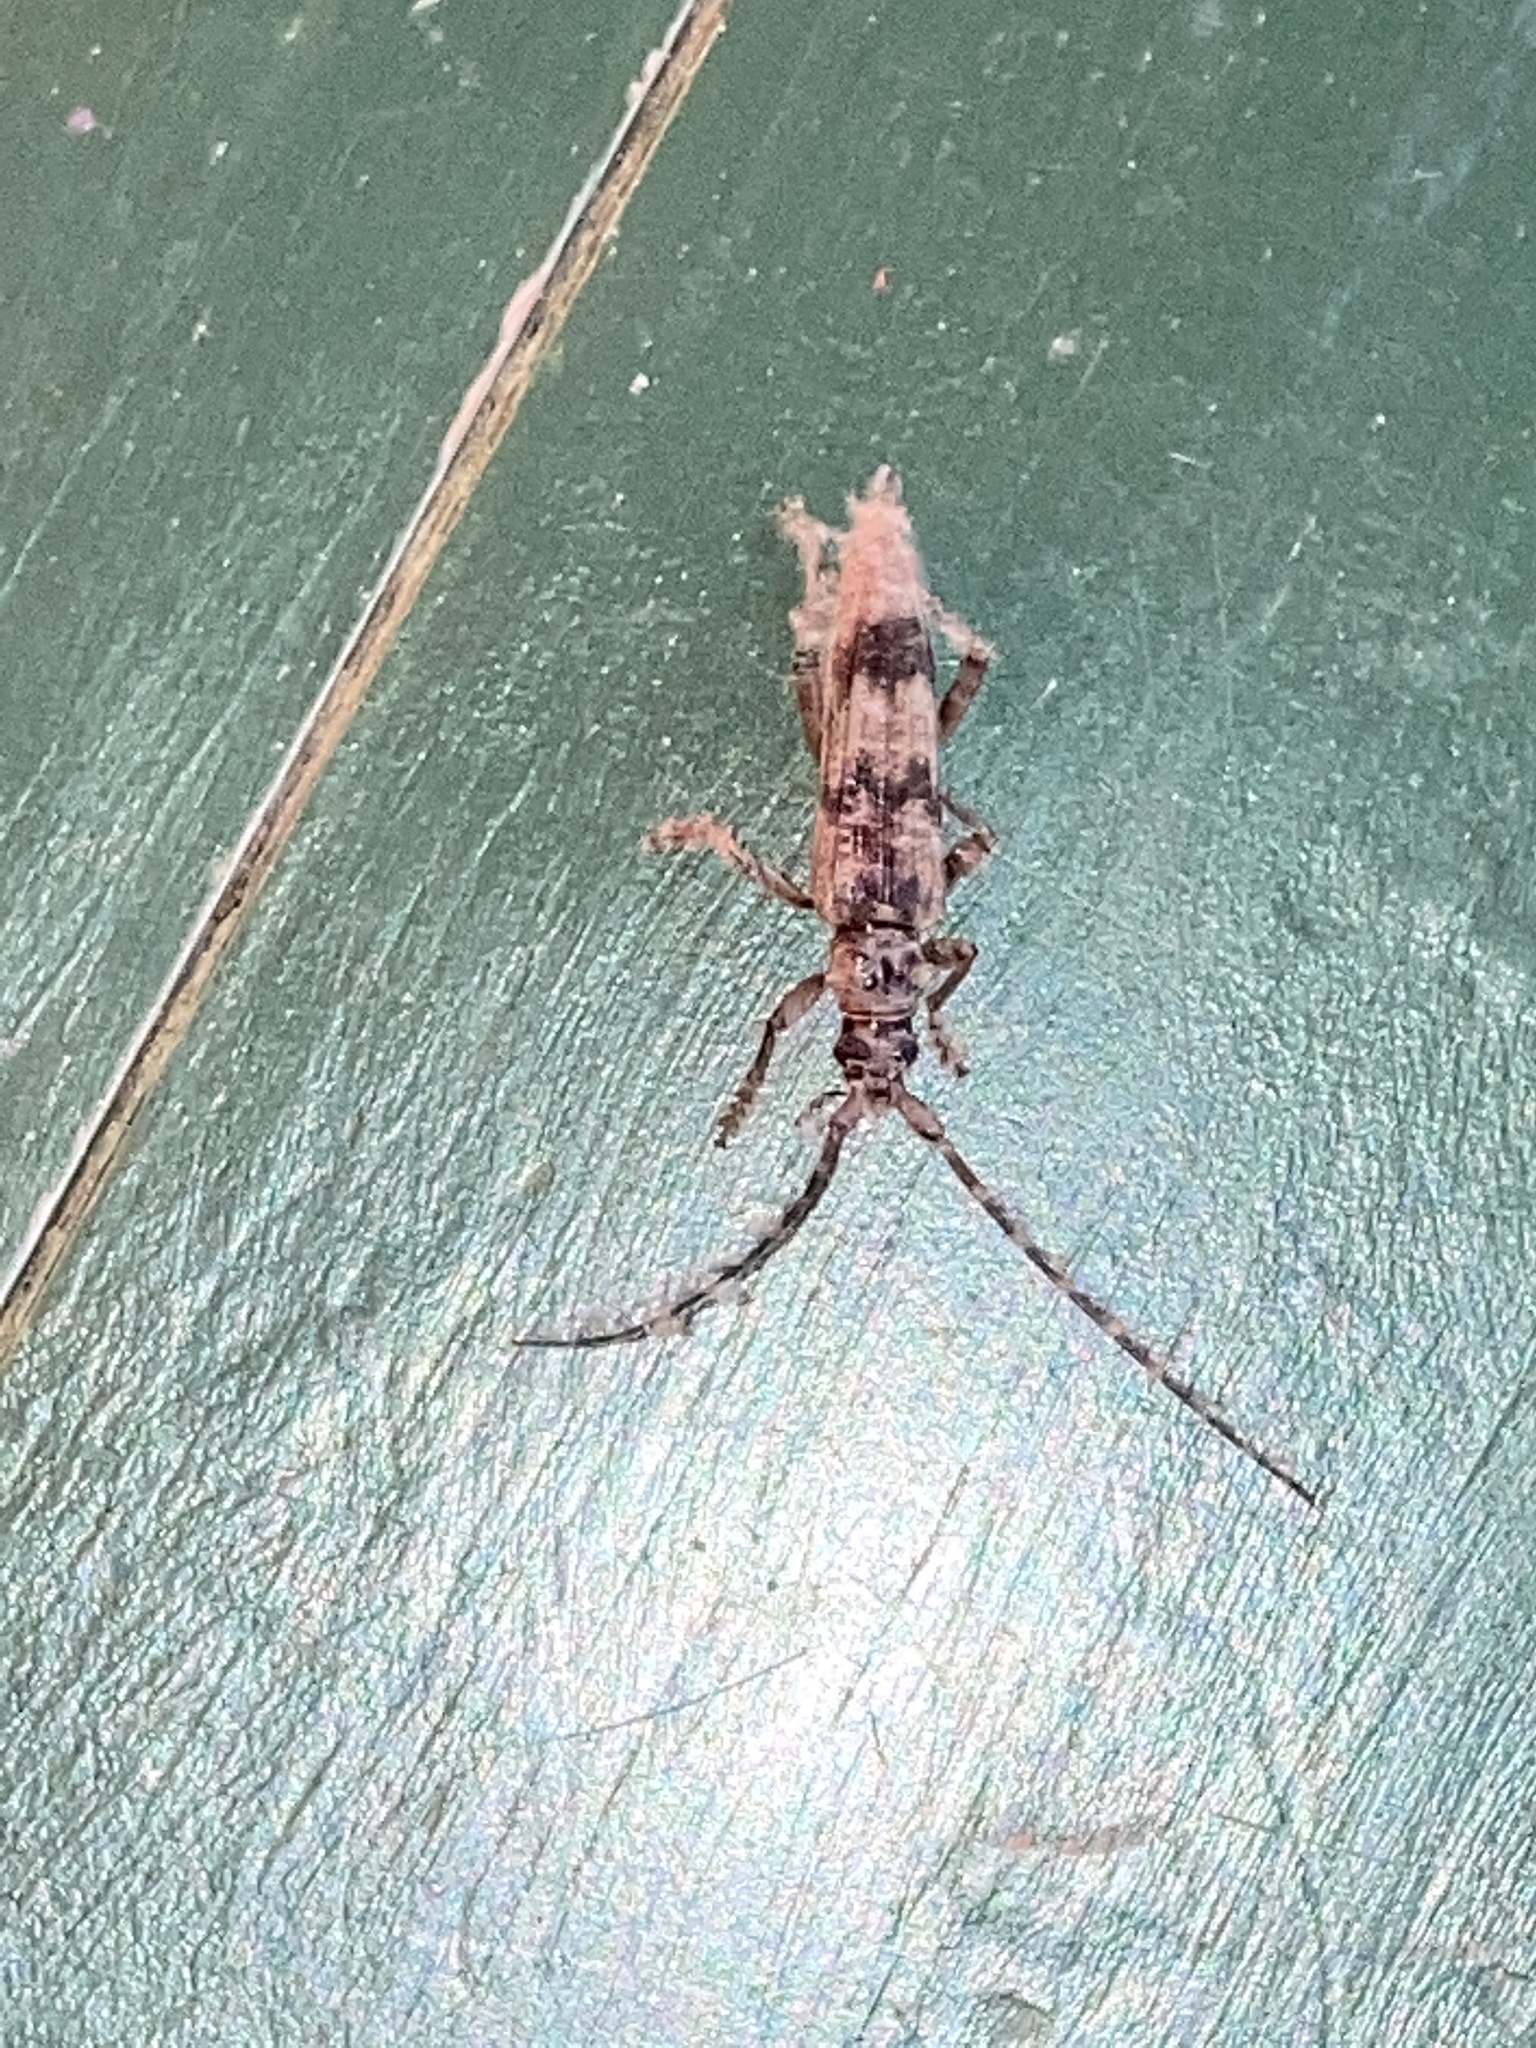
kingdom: Animalia
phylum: Arthropoda
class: Insecta
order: Coleoptera
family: Cerambycidae
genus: Elytrimitatrix
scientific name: Elytrimitatrix undata
